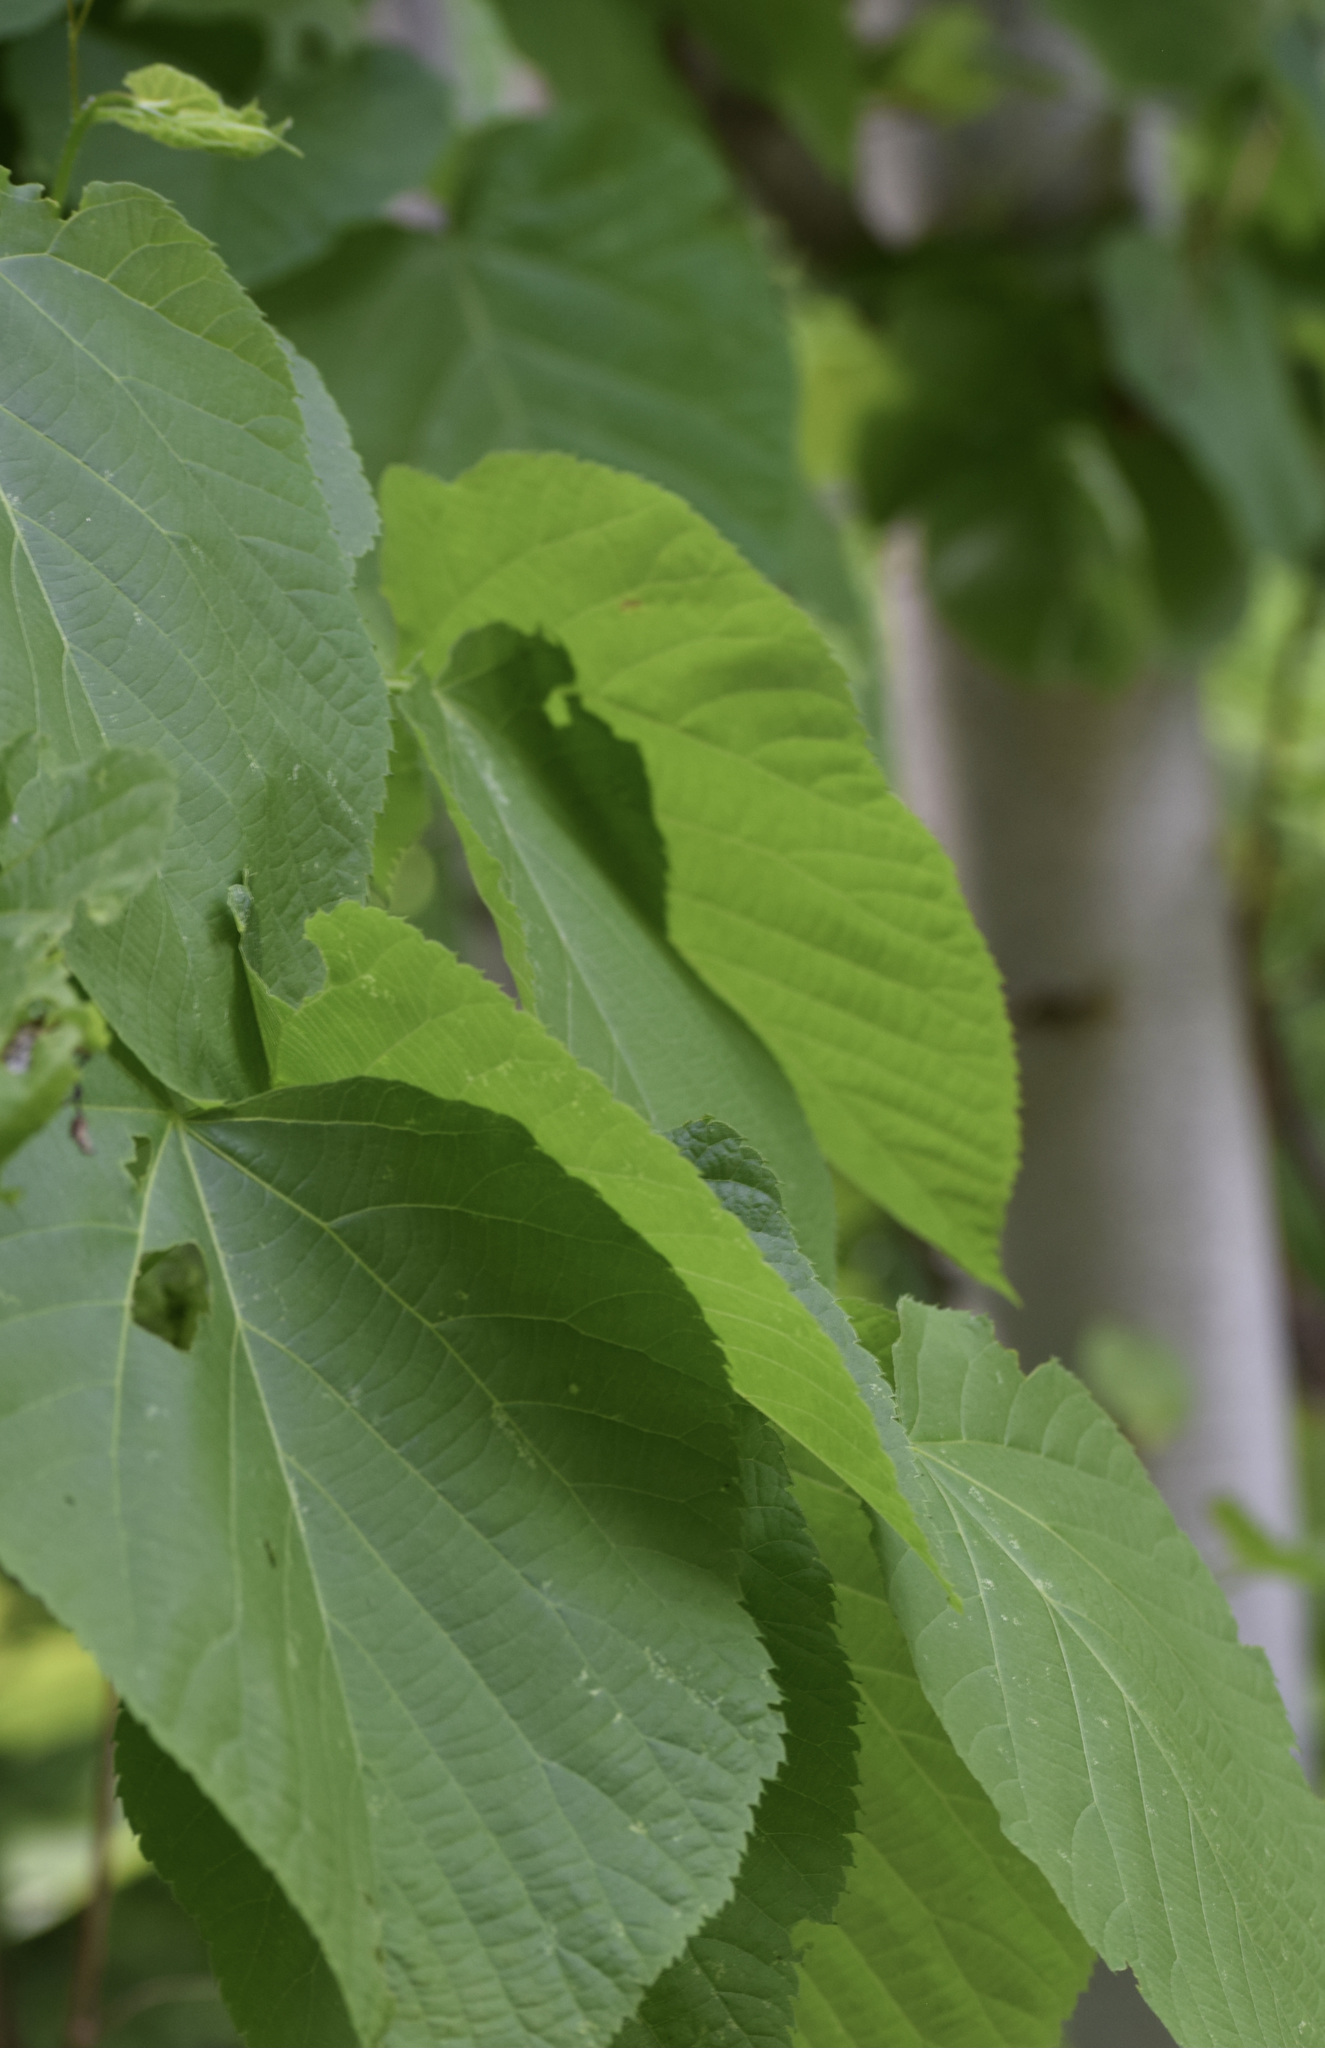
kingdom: Plantae
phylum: Tracheophyta
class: Magnoliopsida
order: Malvales
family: Malvaceae
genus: Tilia
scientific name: Tilia americana
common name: Basswood
